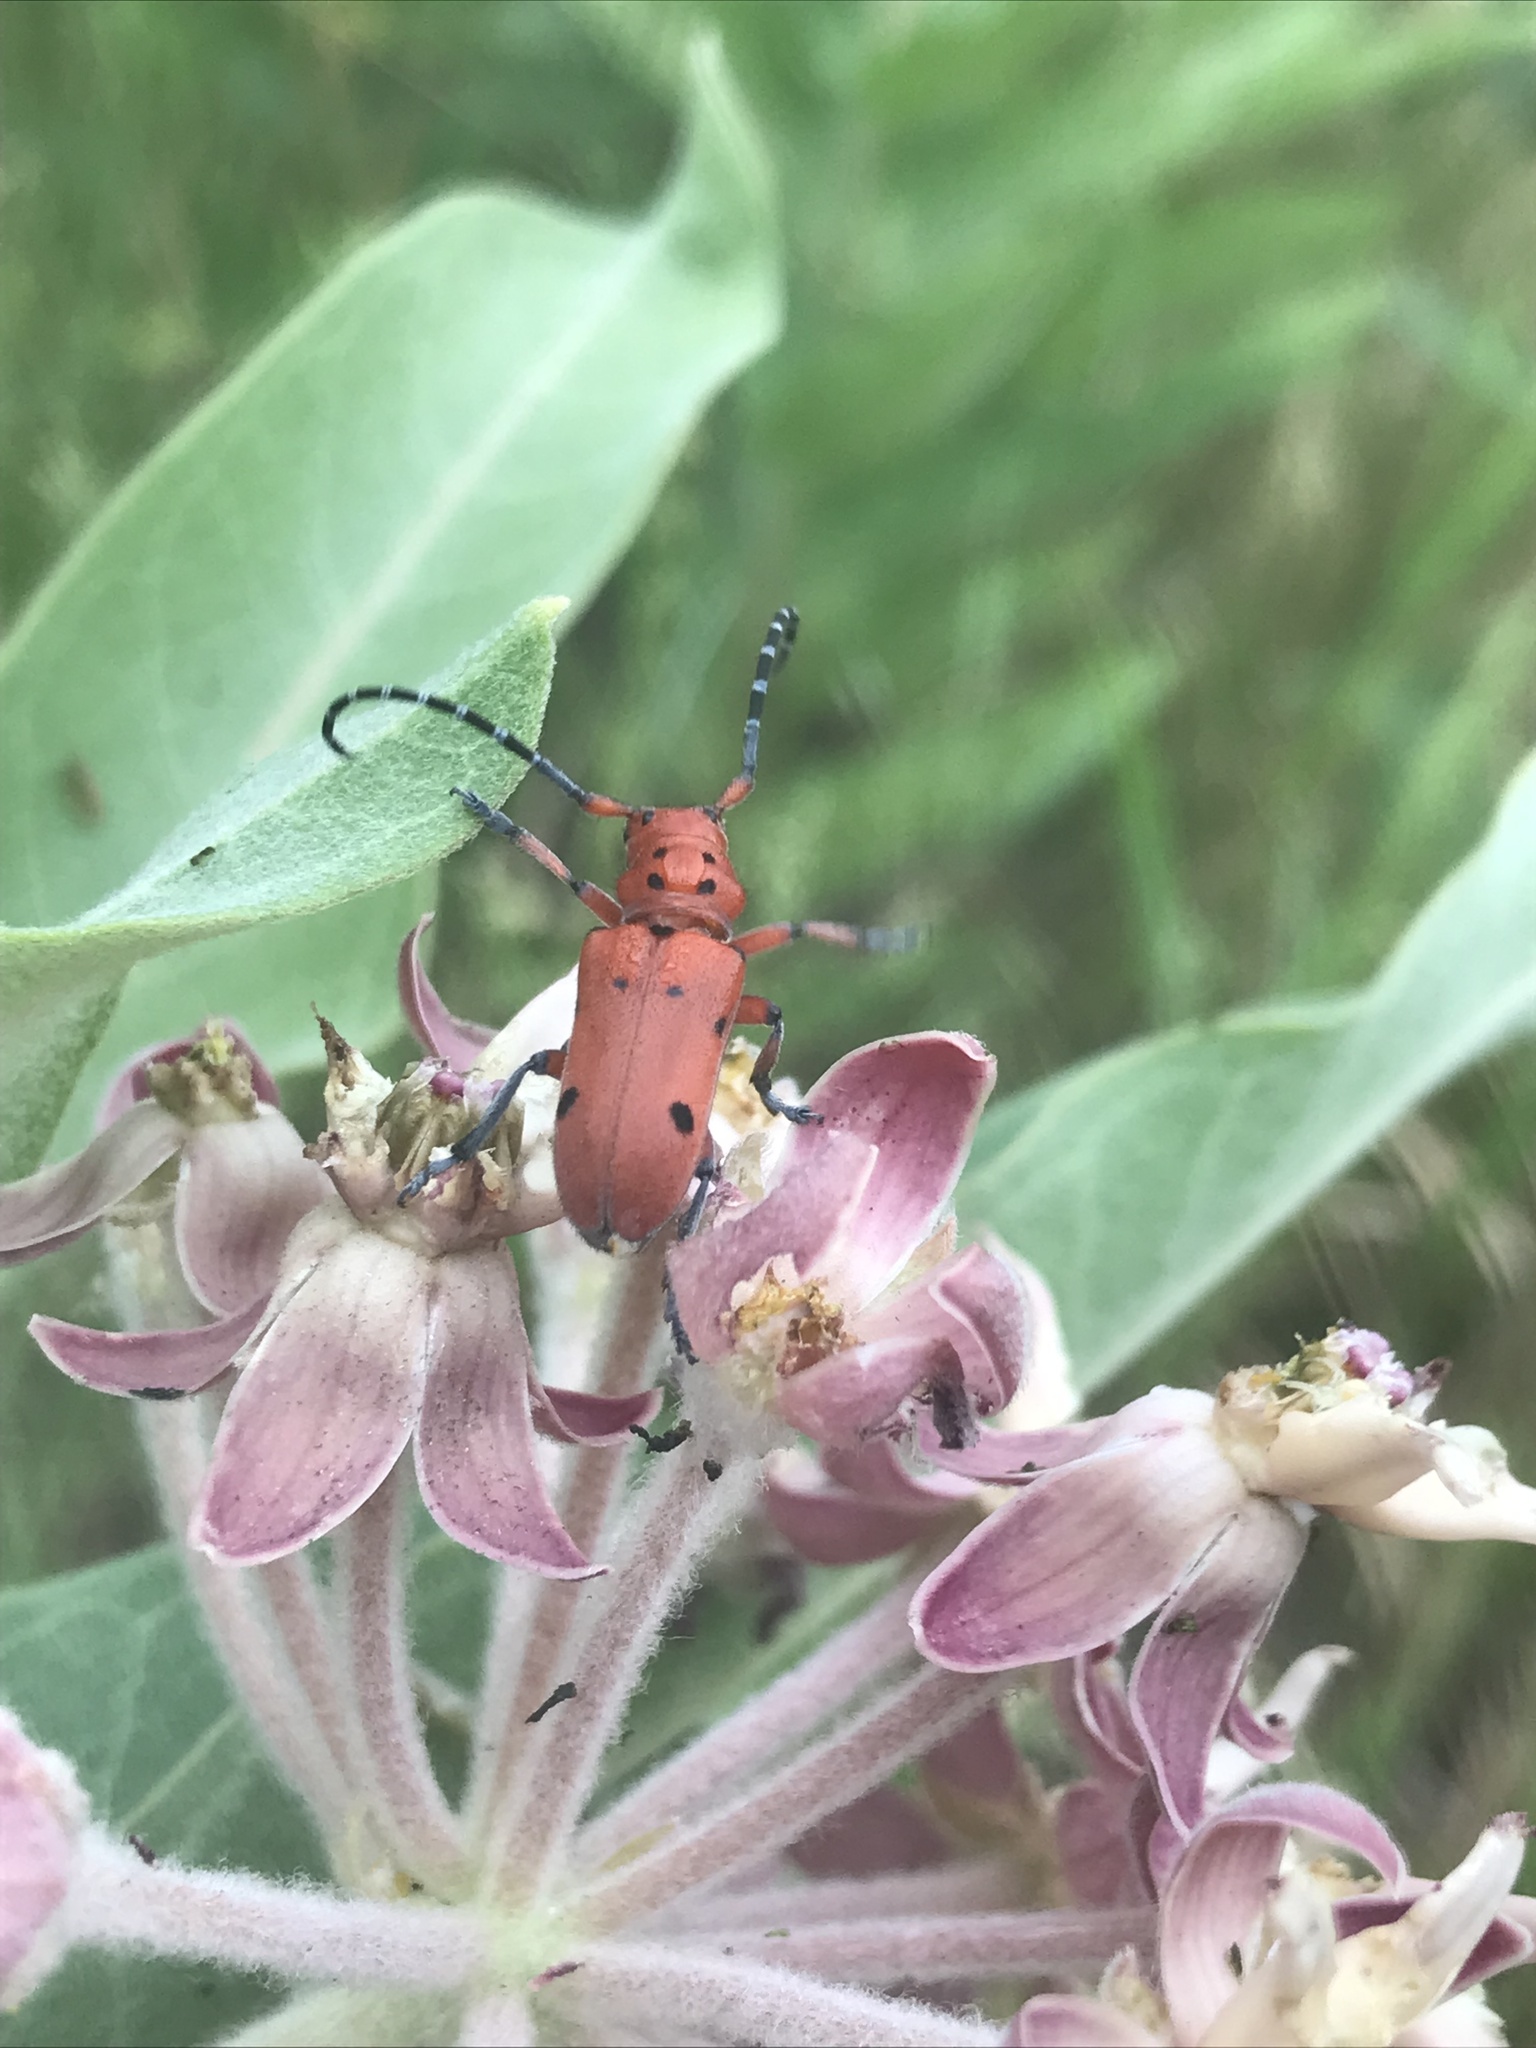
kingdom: Animalia
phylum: Arthropoda
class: Insecta
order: Coleoptera
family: Cerambycidae
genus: Tetraopes
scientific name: Tetraopes femoratus
